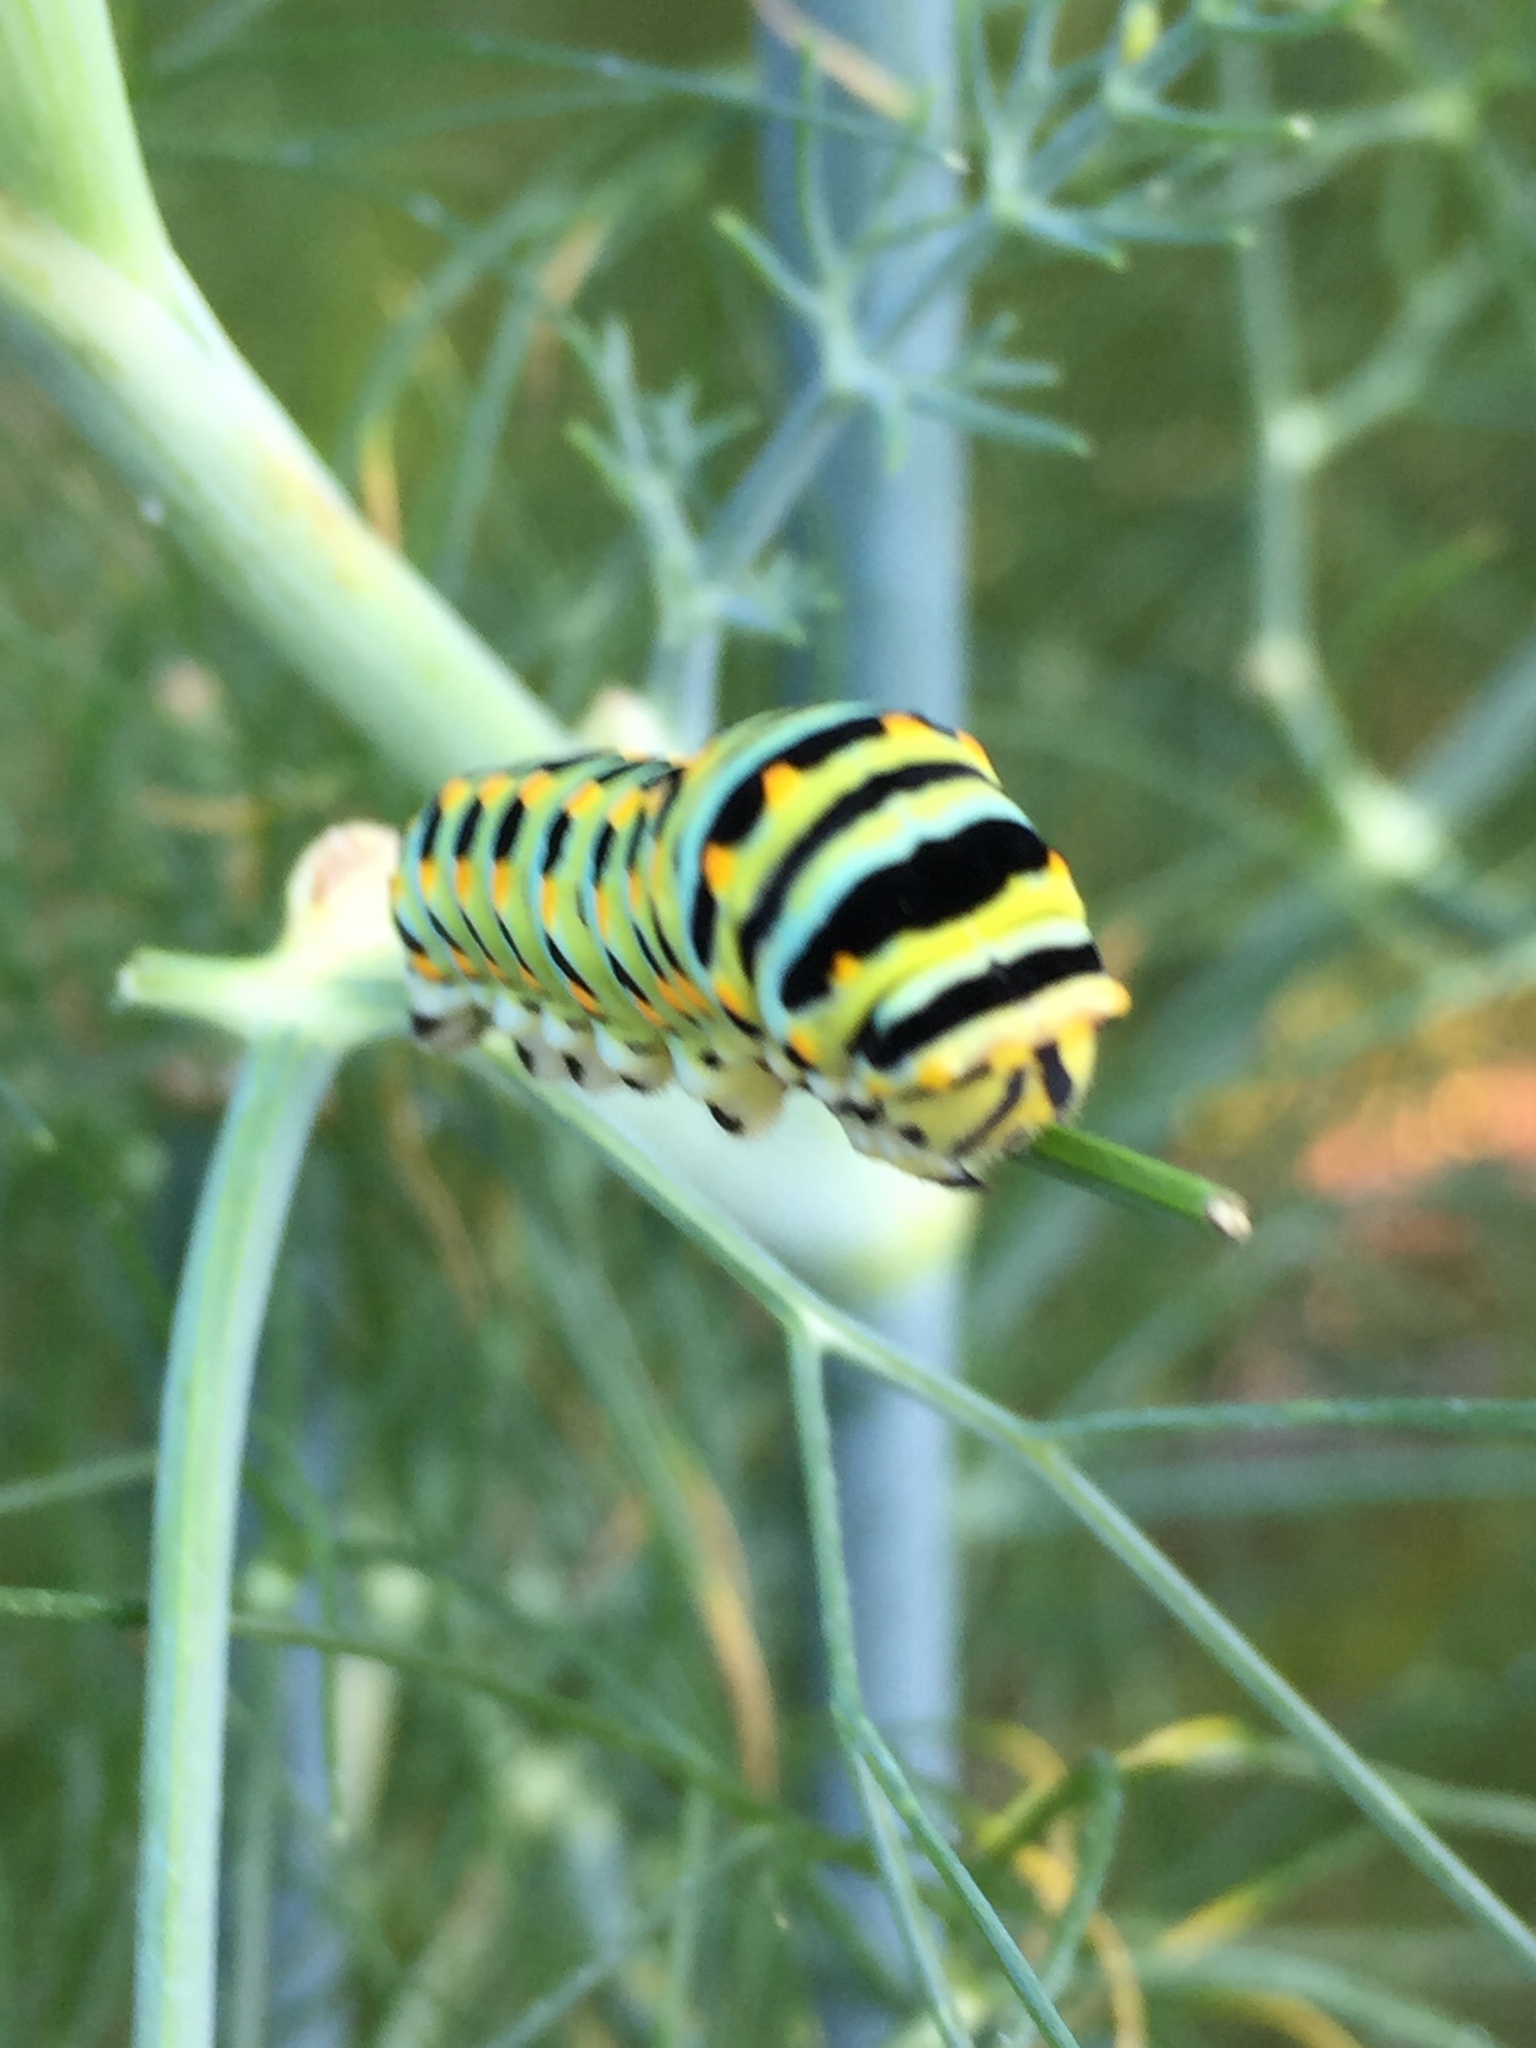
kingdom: Animalia
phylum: Arthropoda
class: Insecta
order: Lepidoptera
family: Papilionidae
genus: Papilio
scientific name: Papilio zelicaon
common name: Anise swallowtail
